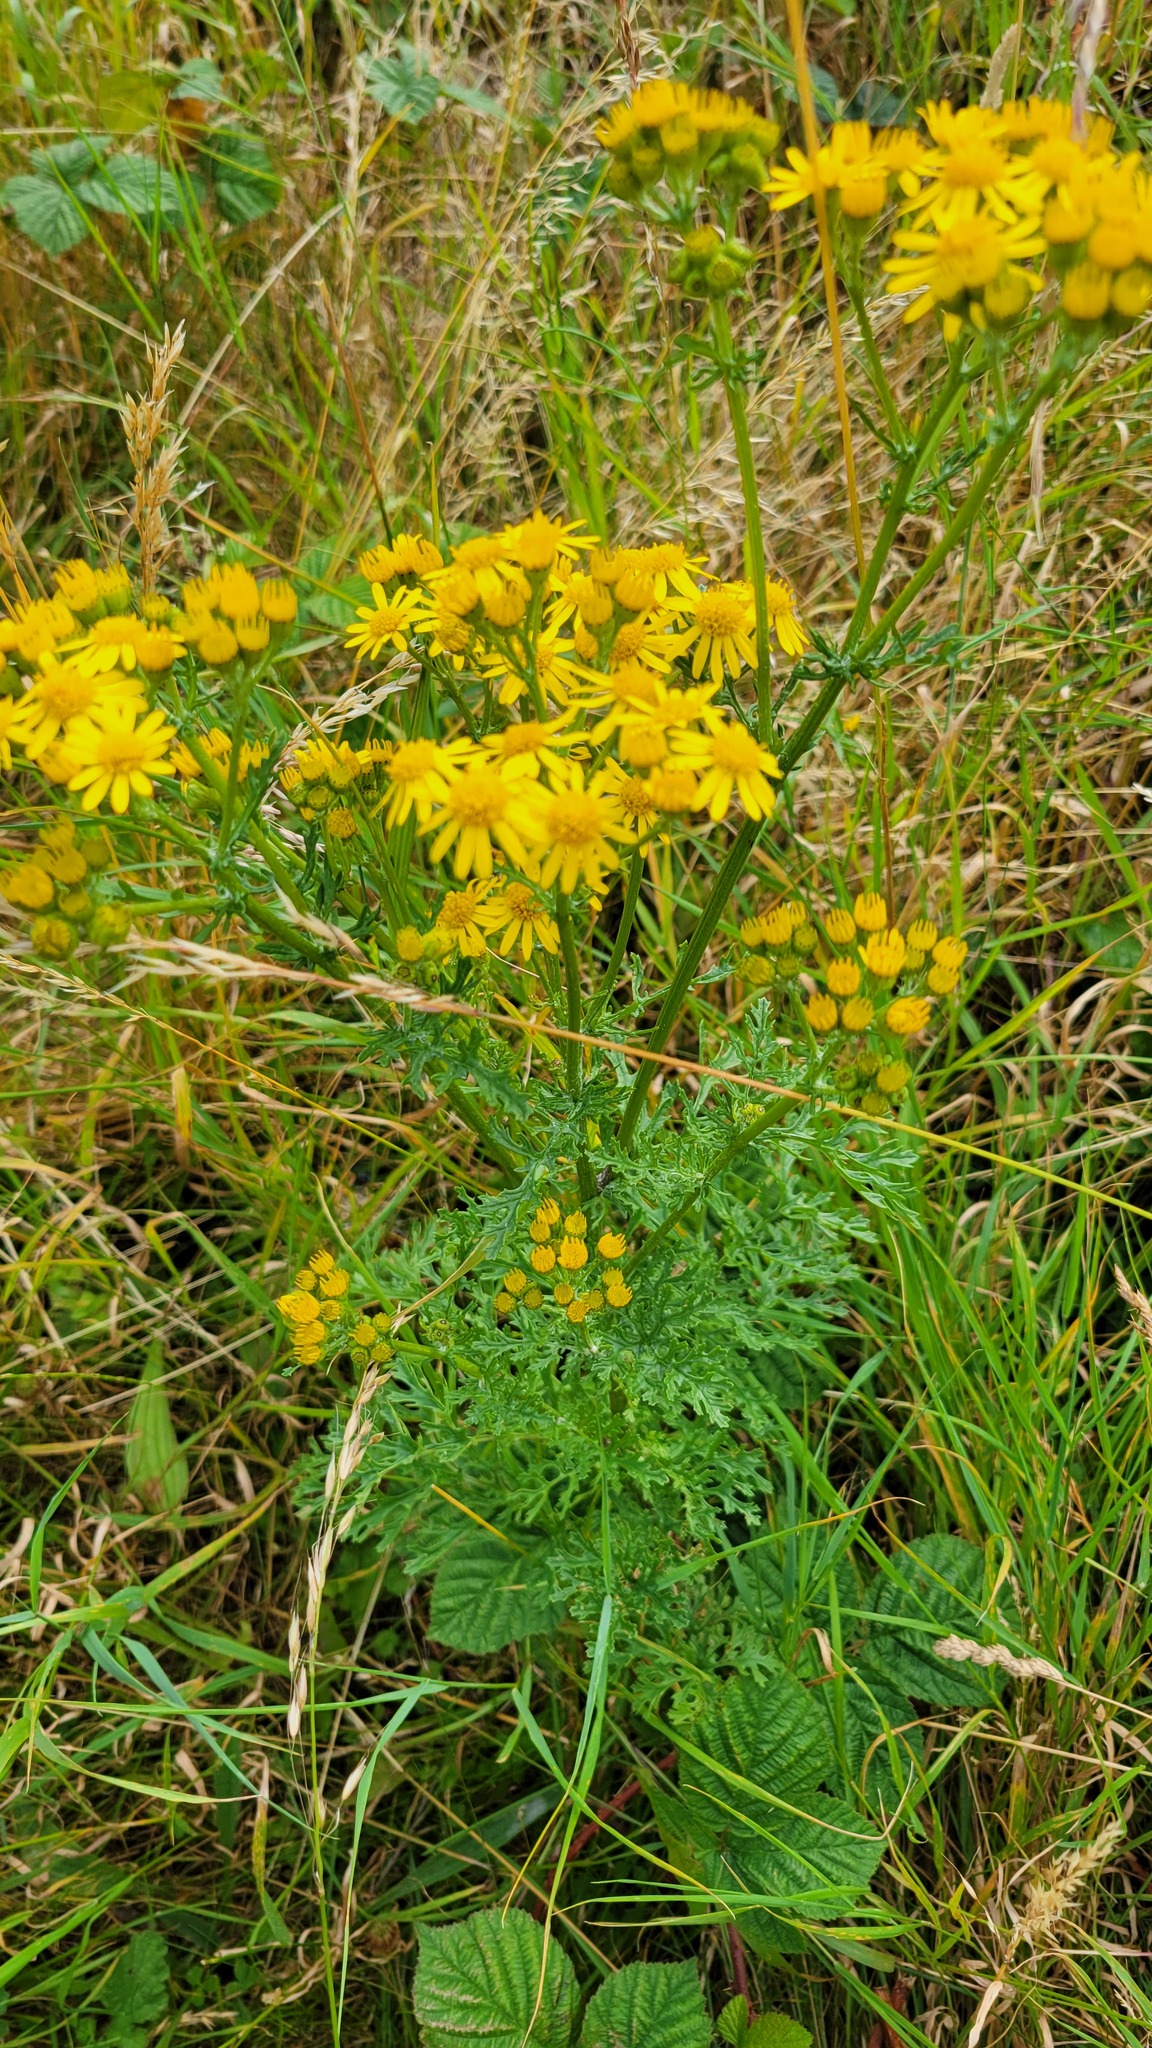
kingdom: Plantae
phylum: Tracheophyta
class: Magnoliopsida
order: Asterales
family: Asteraceae
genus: Jacobaea
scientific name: Jacobaea vulgaris
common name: Stinking willie
